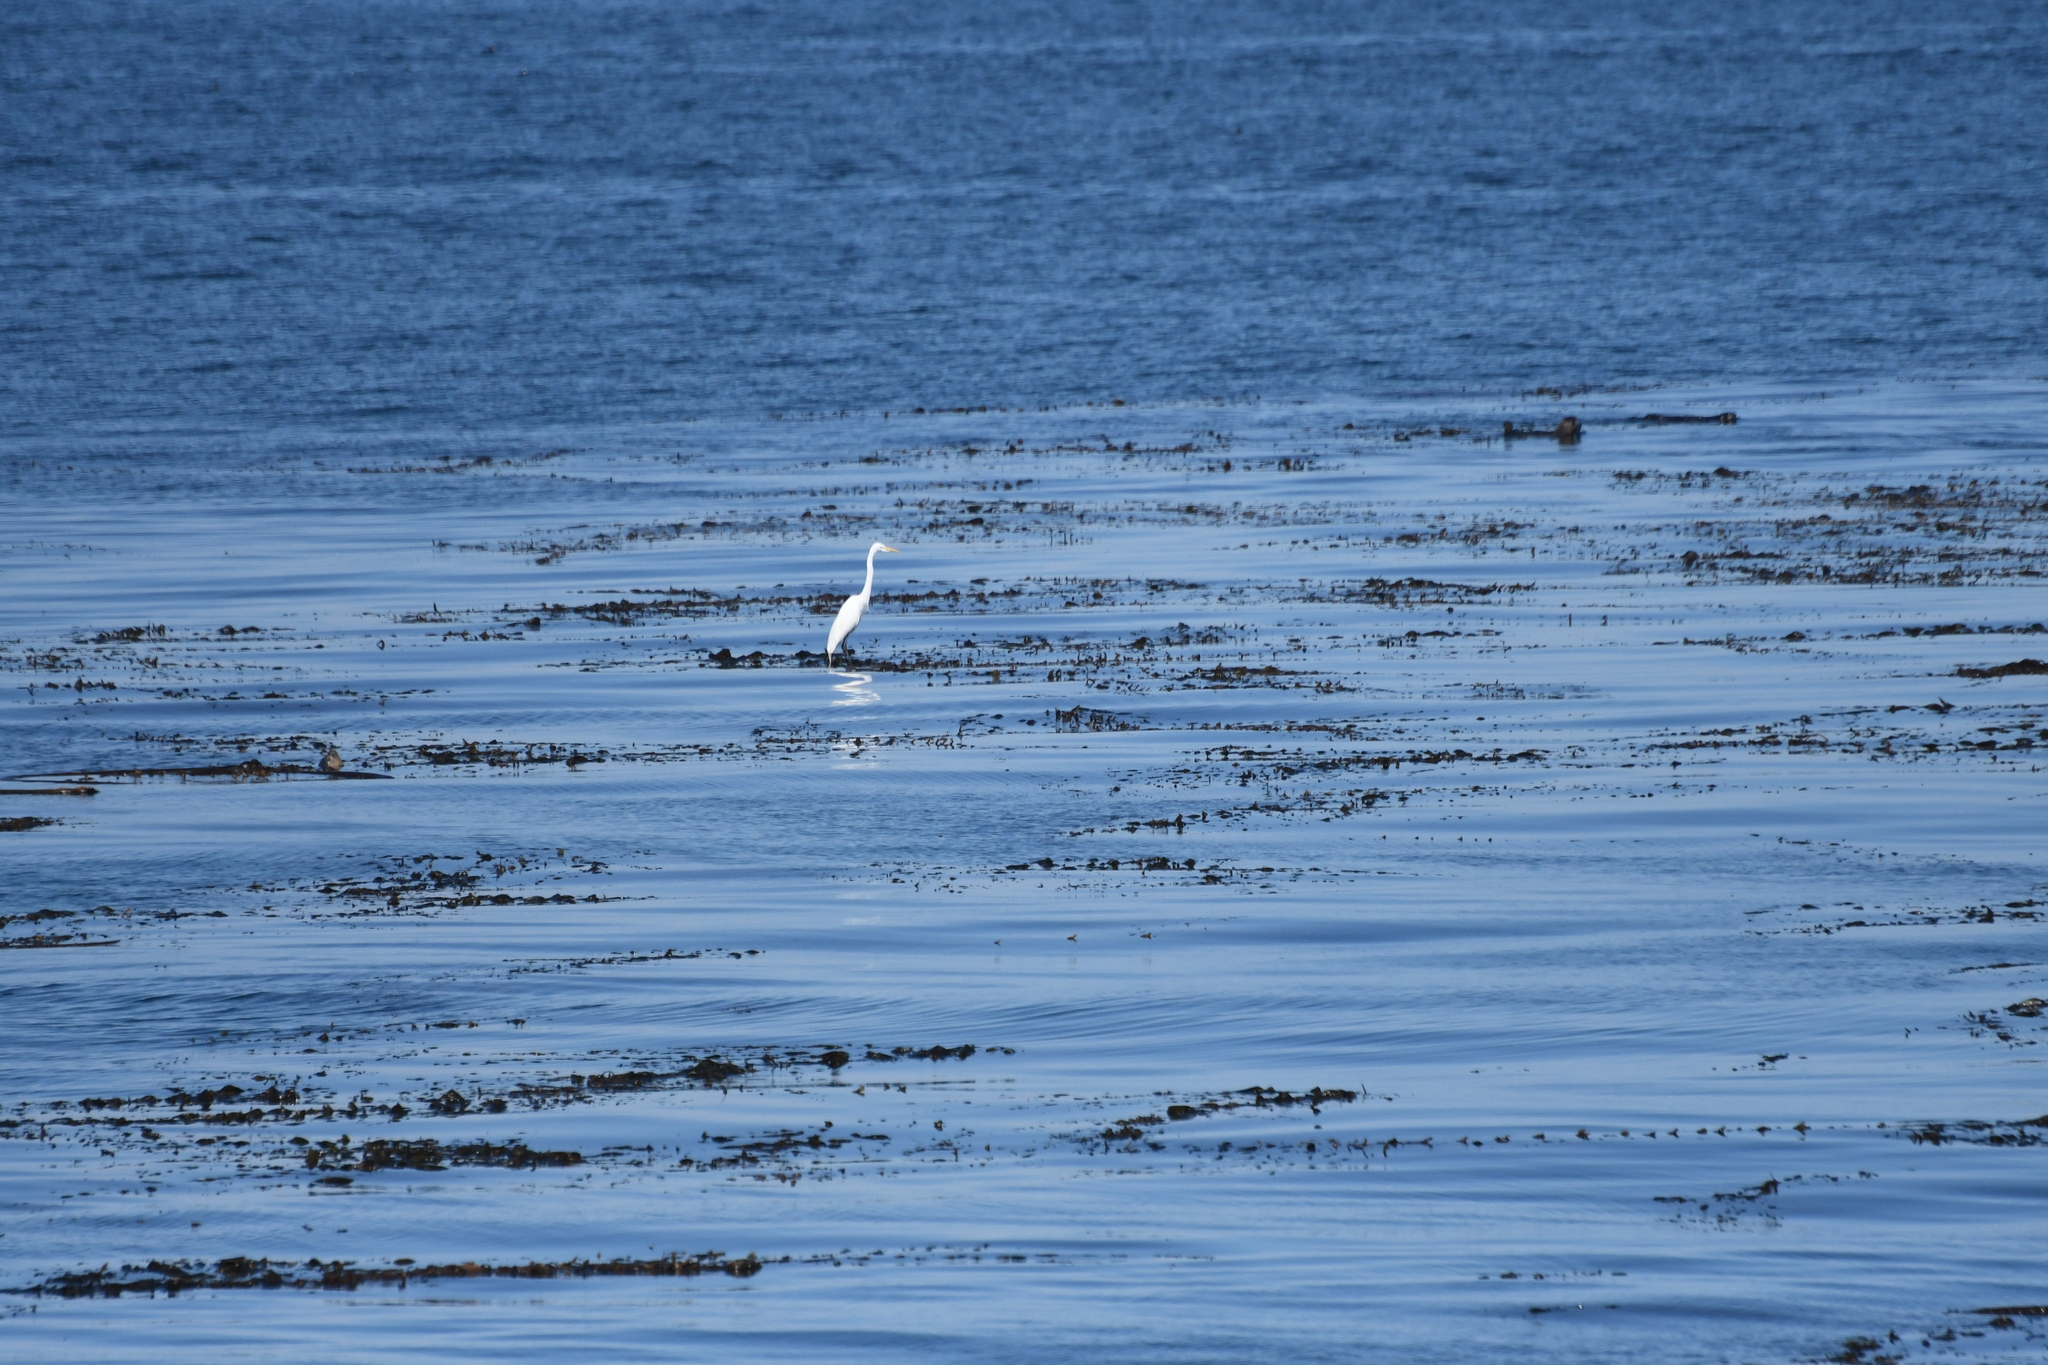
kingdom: Animalia
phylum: Chordata
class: Aves
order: Pelecaniformes
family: Ardeidae
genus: Ardea
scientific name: Ardea alba
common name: Great egret
